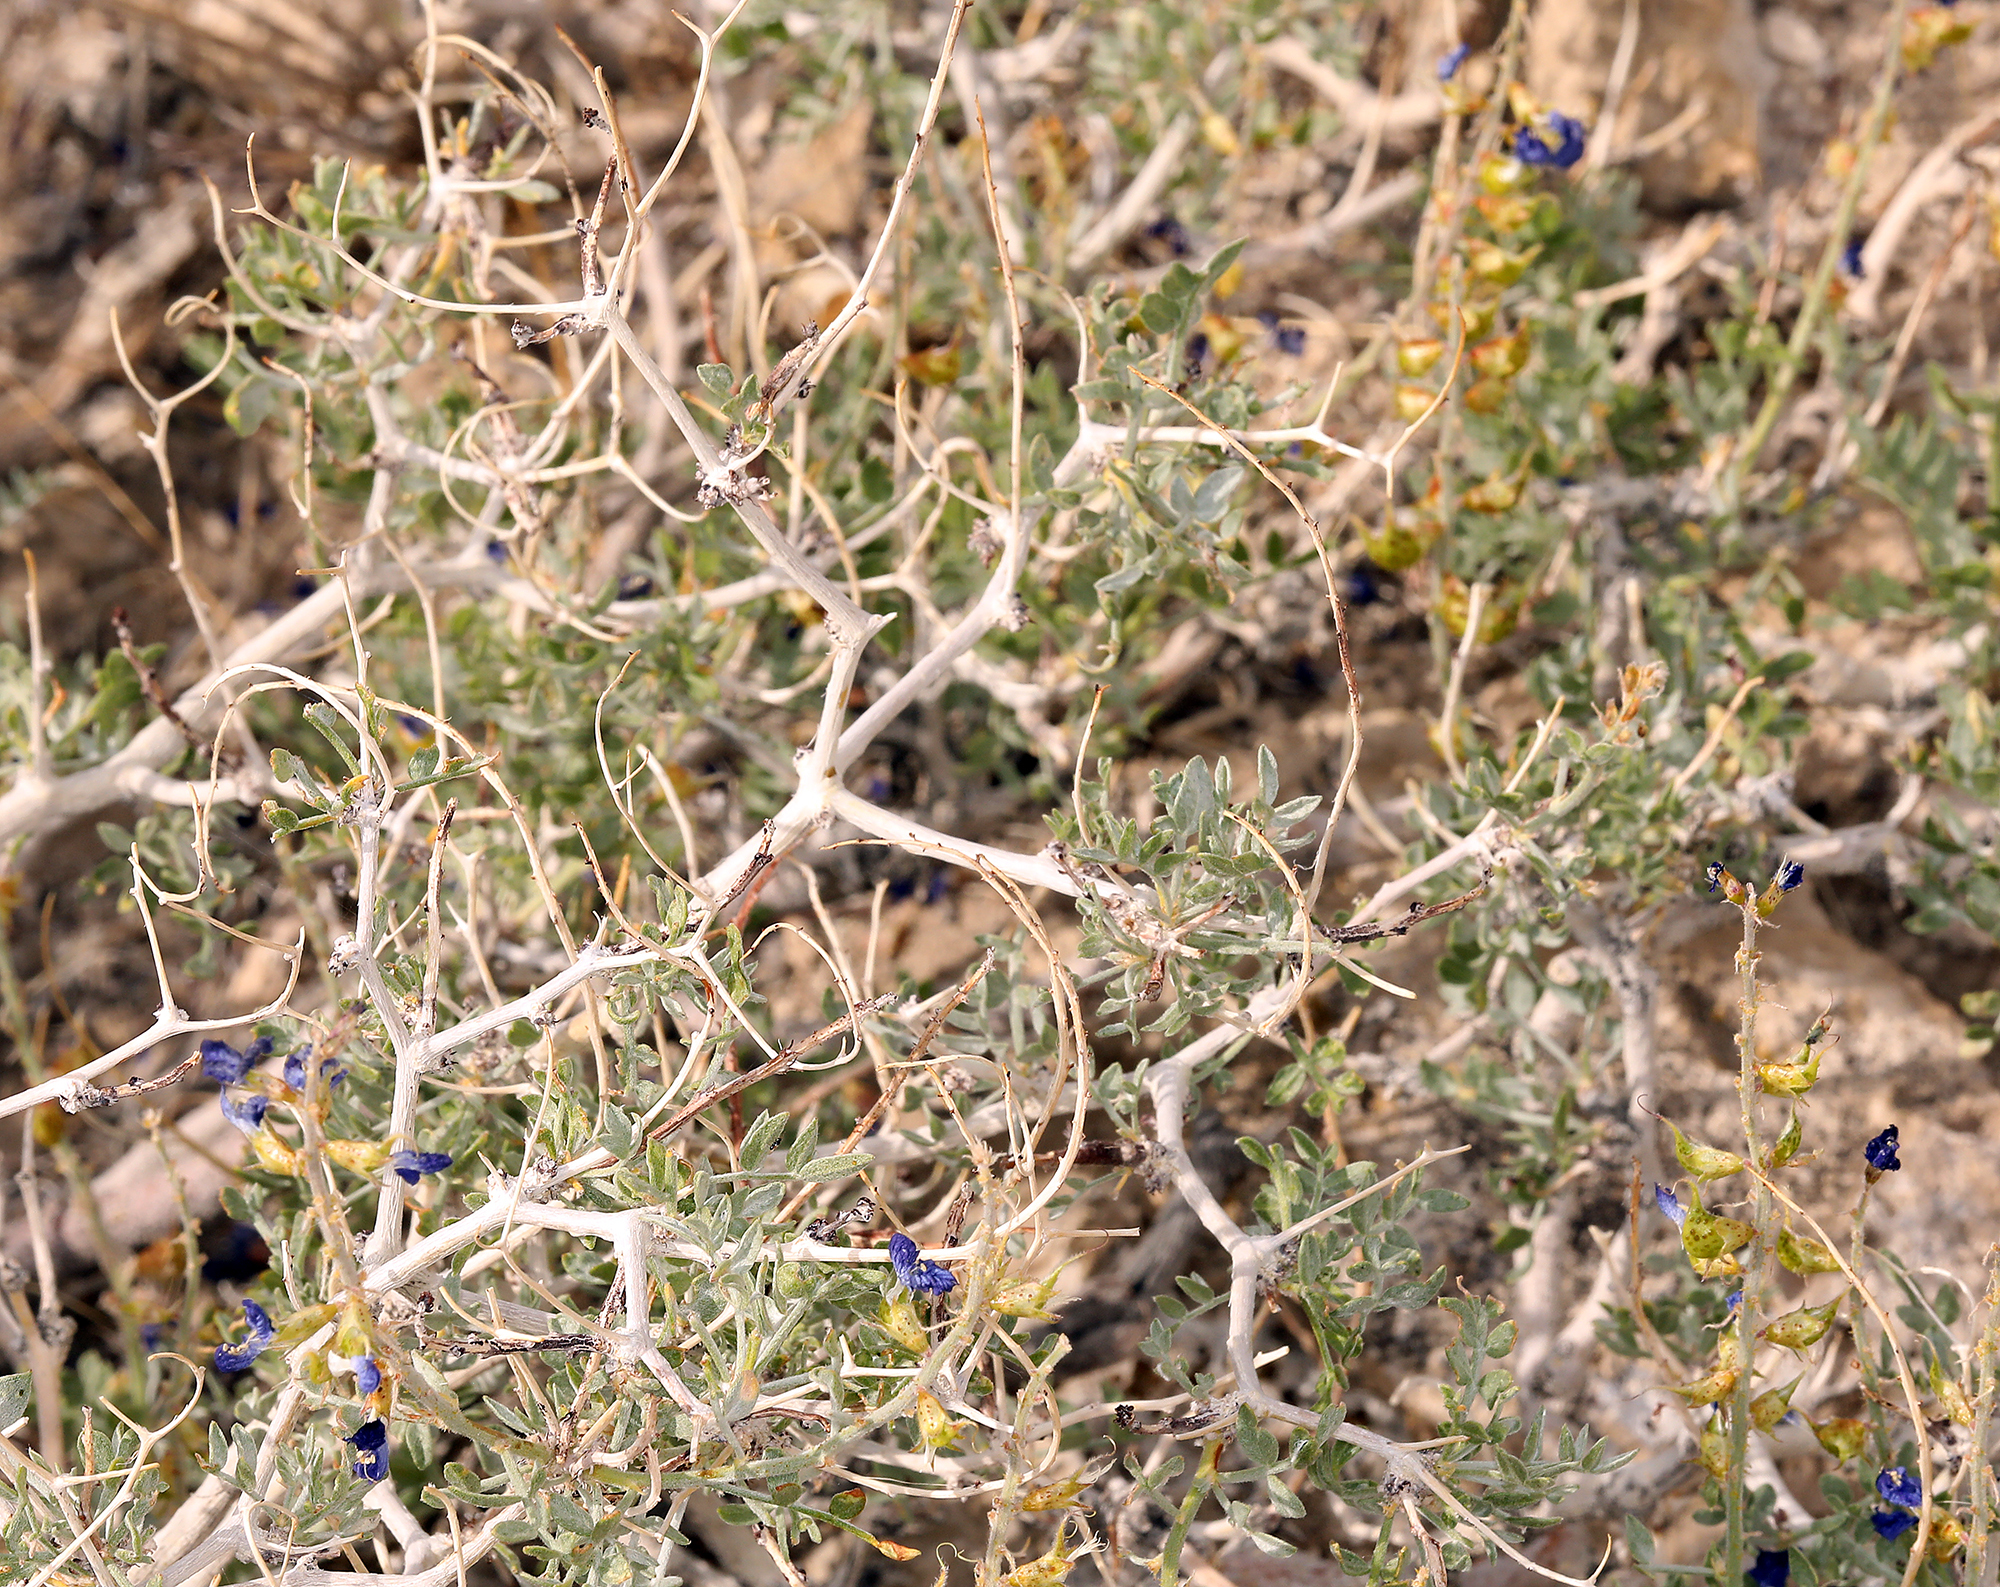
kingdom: Plantae
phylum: Tracheophyta
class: Magnoliopsida
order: Fabales
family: Fabaceae
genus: Psorothamnus
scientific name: Psorothamnus arborescens
